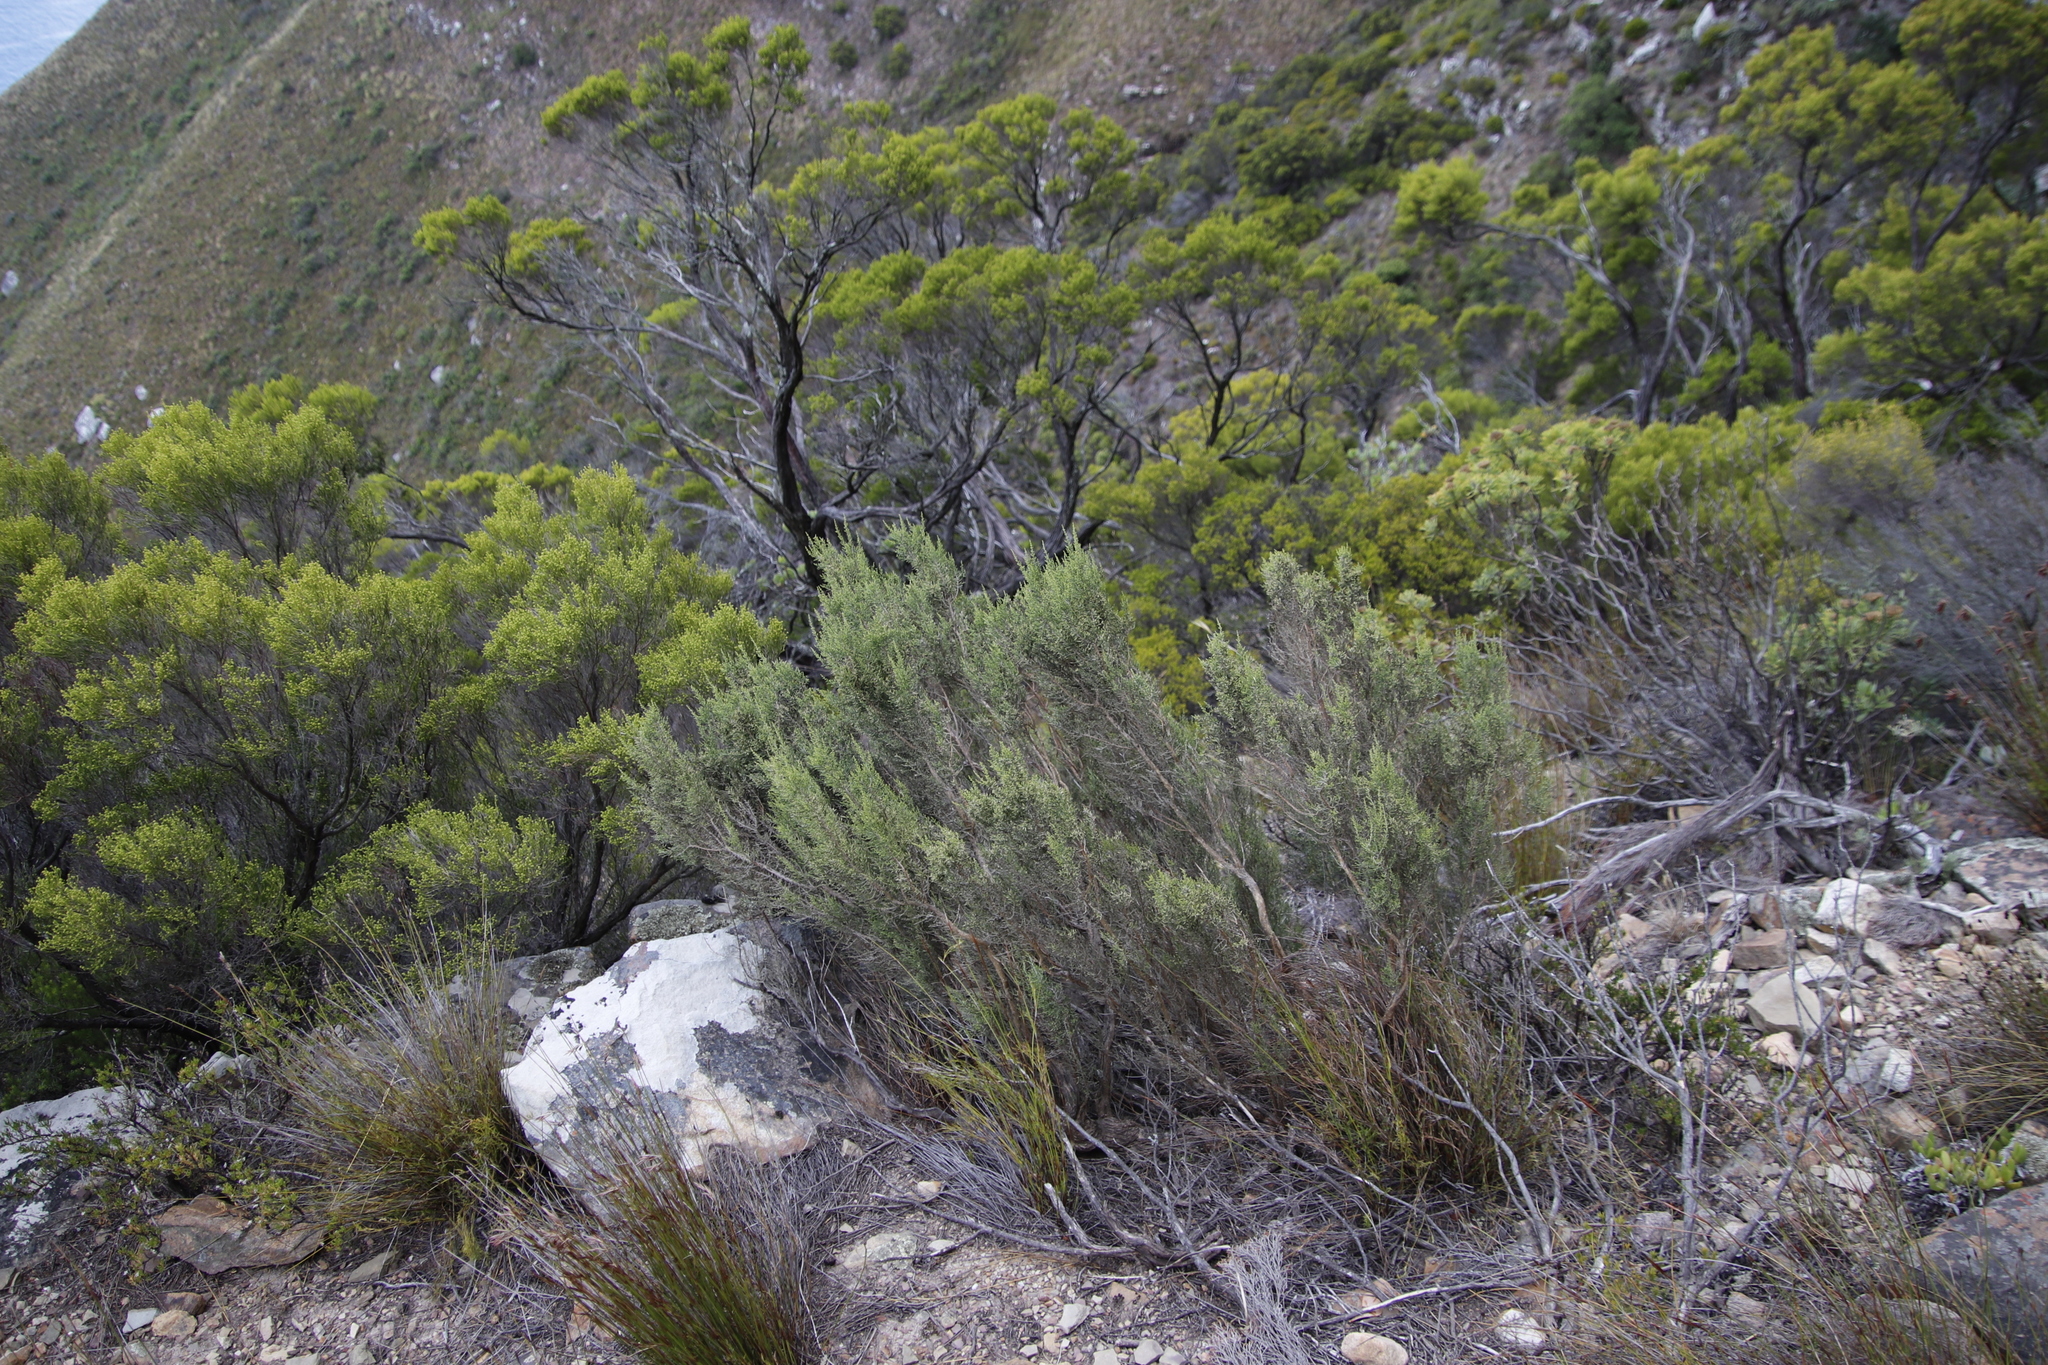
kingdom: Plantae
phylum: Tracheophyta
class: Magnoliopsida
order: Asterales
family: Asteraceae
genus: Dicerothamnus
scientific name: Dicerothamnus rhinocerotis
